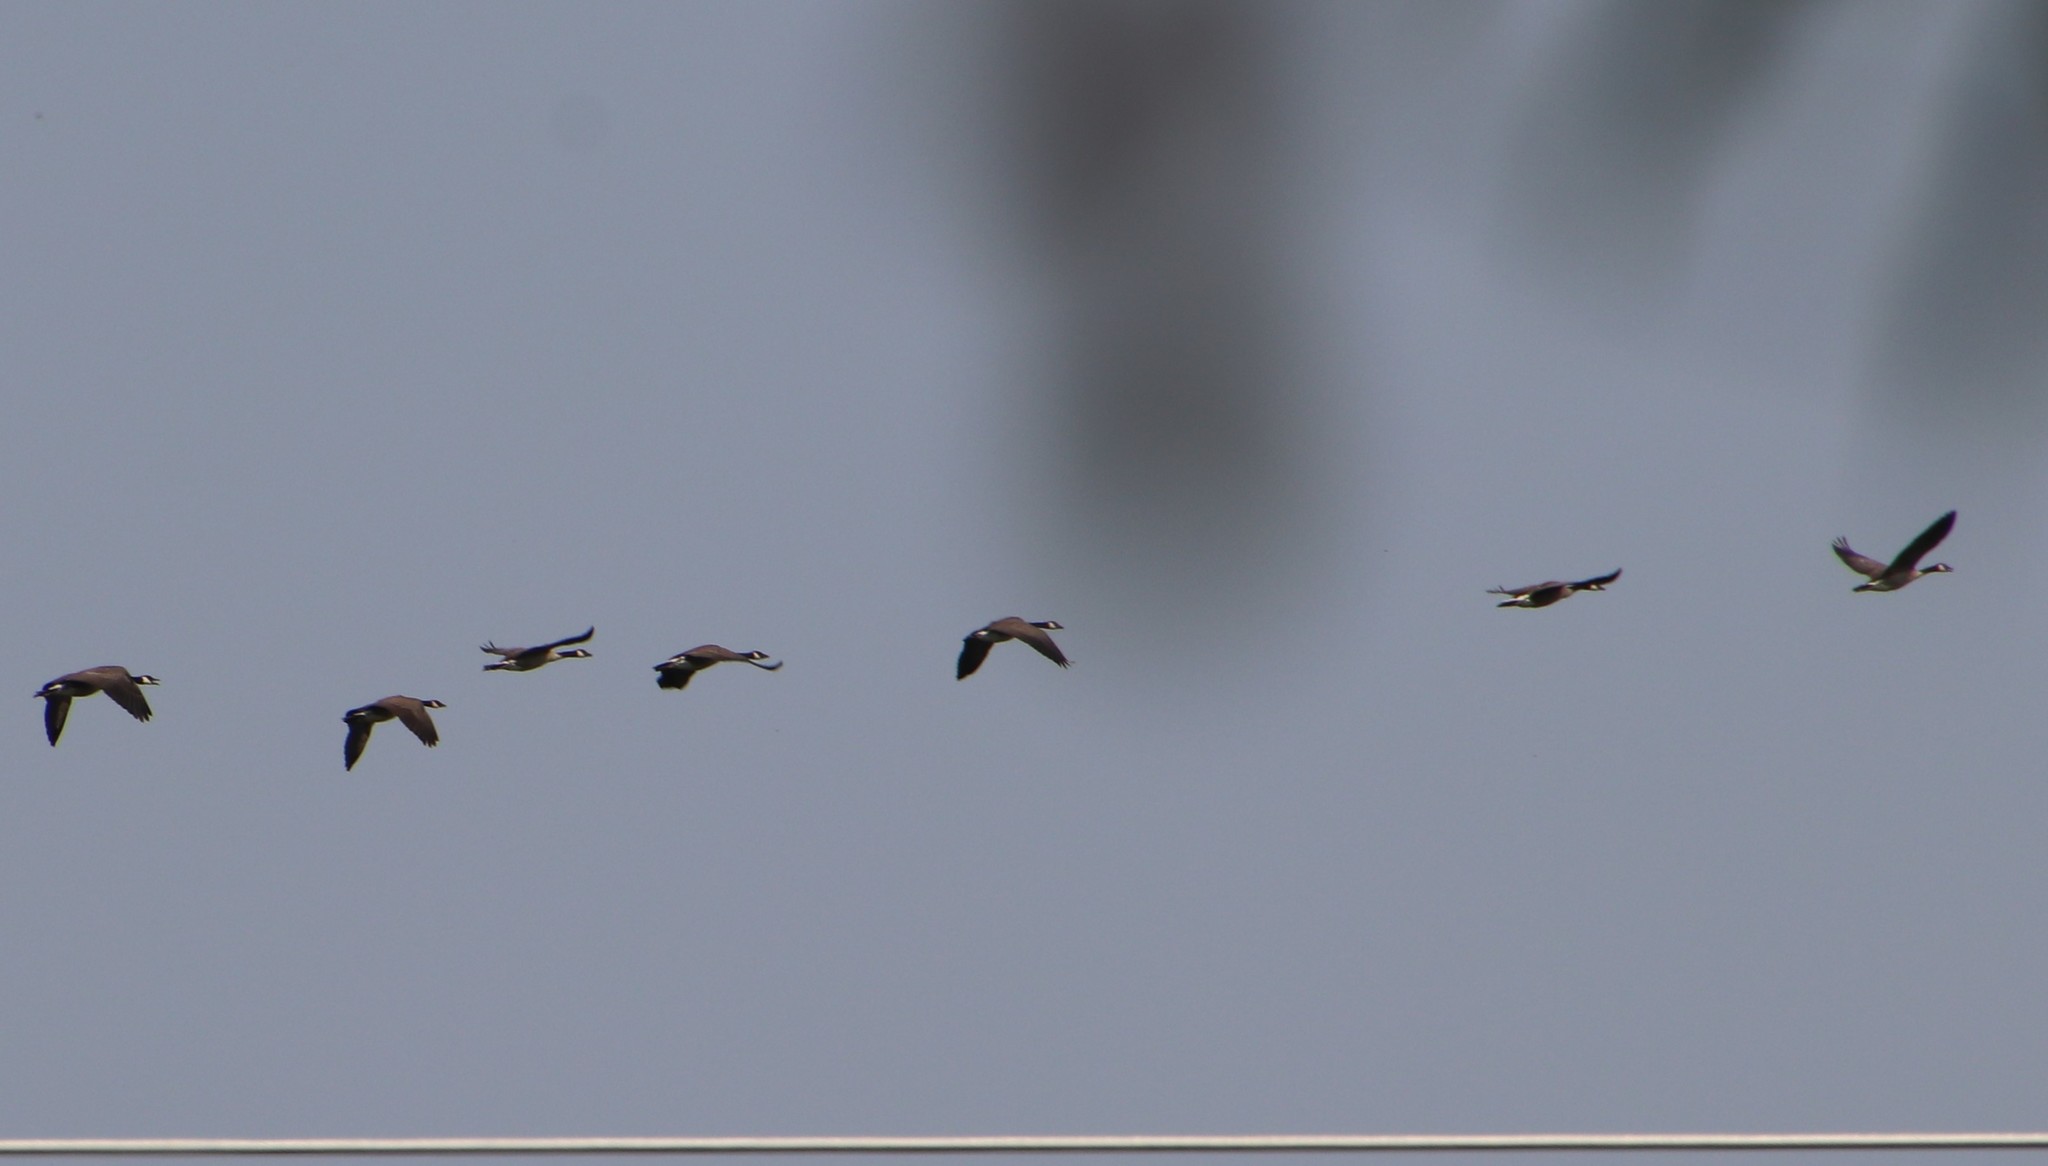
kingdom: Animalia
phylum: Chordata
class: Aves
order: Anseriformes
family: Anatidae
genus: Branta
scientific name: Branta canadensis
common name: Canada goose
